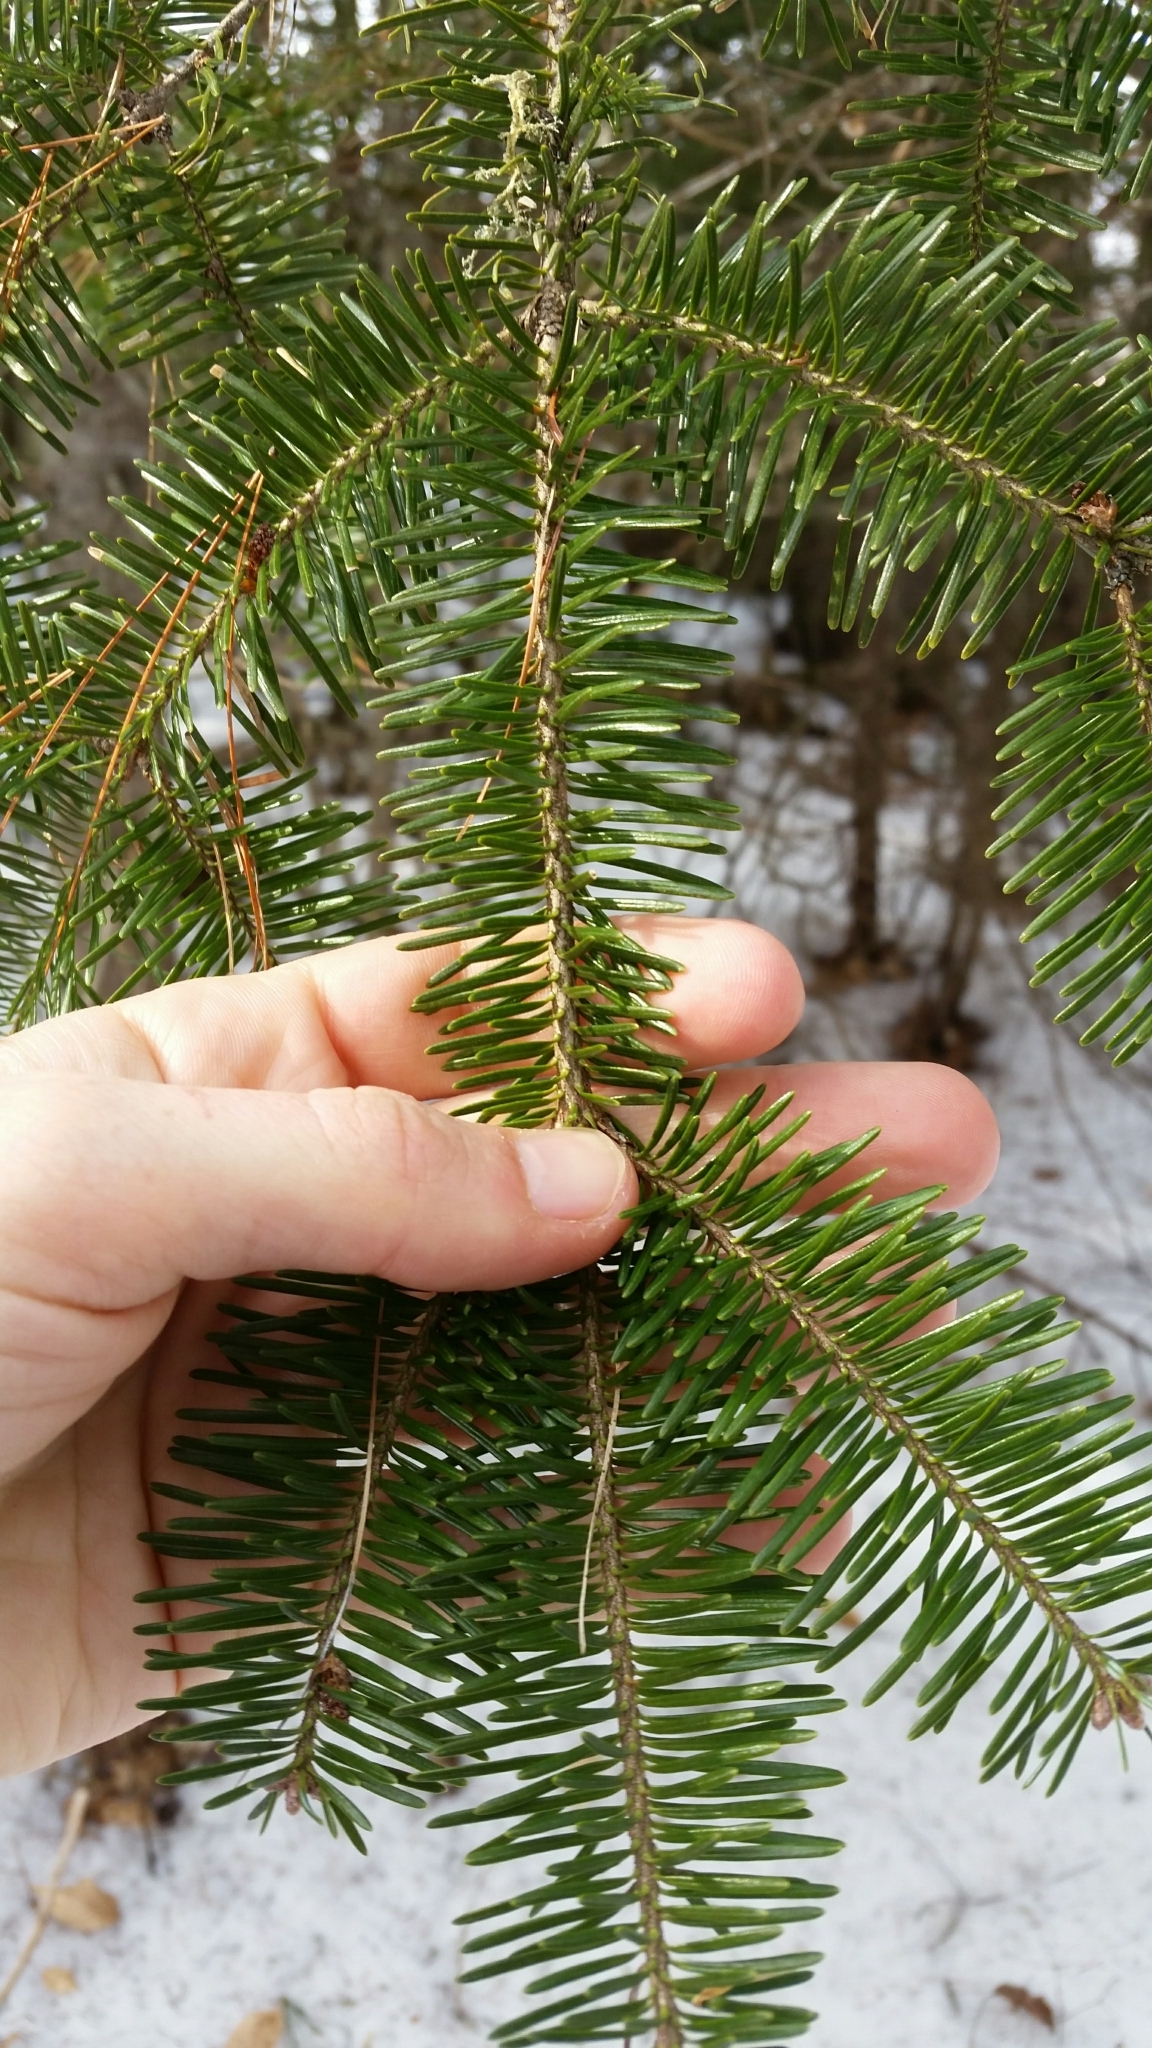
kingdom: Plantae
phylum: Tracheophyta
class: Pinopsida
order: Pinales
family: Pinaceae
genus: Abies
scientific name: Abies balsamea
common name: Balsam fir
